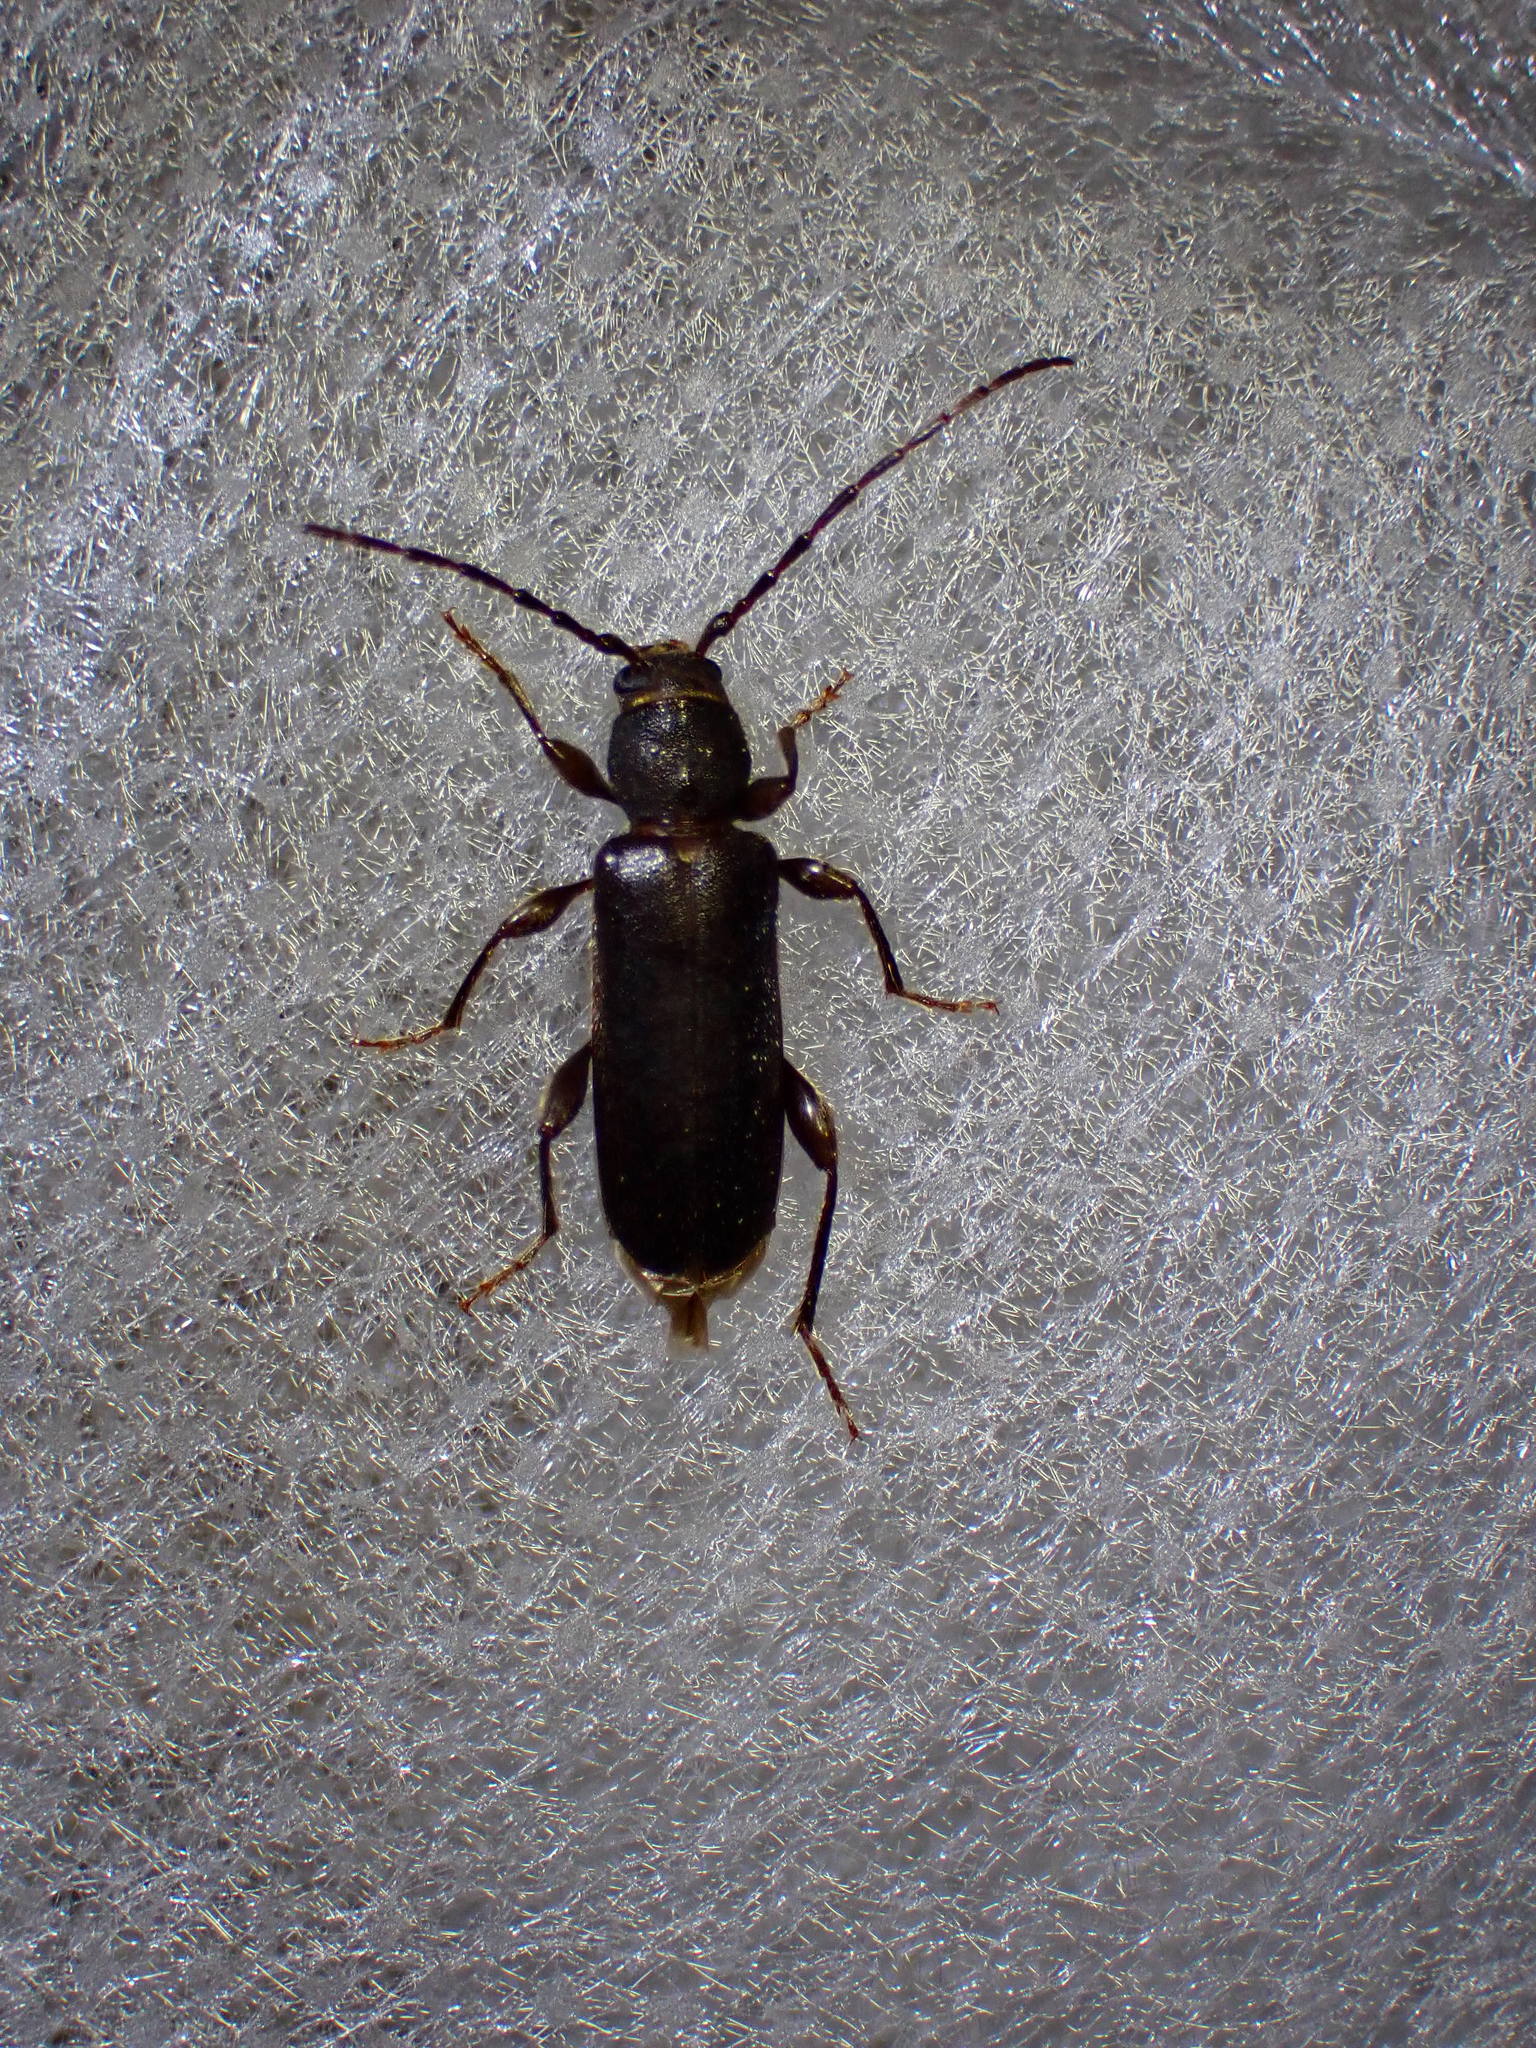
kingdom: Animalia
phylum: Arthropoda
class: Insecta
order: Coleoptera
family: Cerambycidae
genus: Phymatodes
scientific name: Phymatodes grandis
